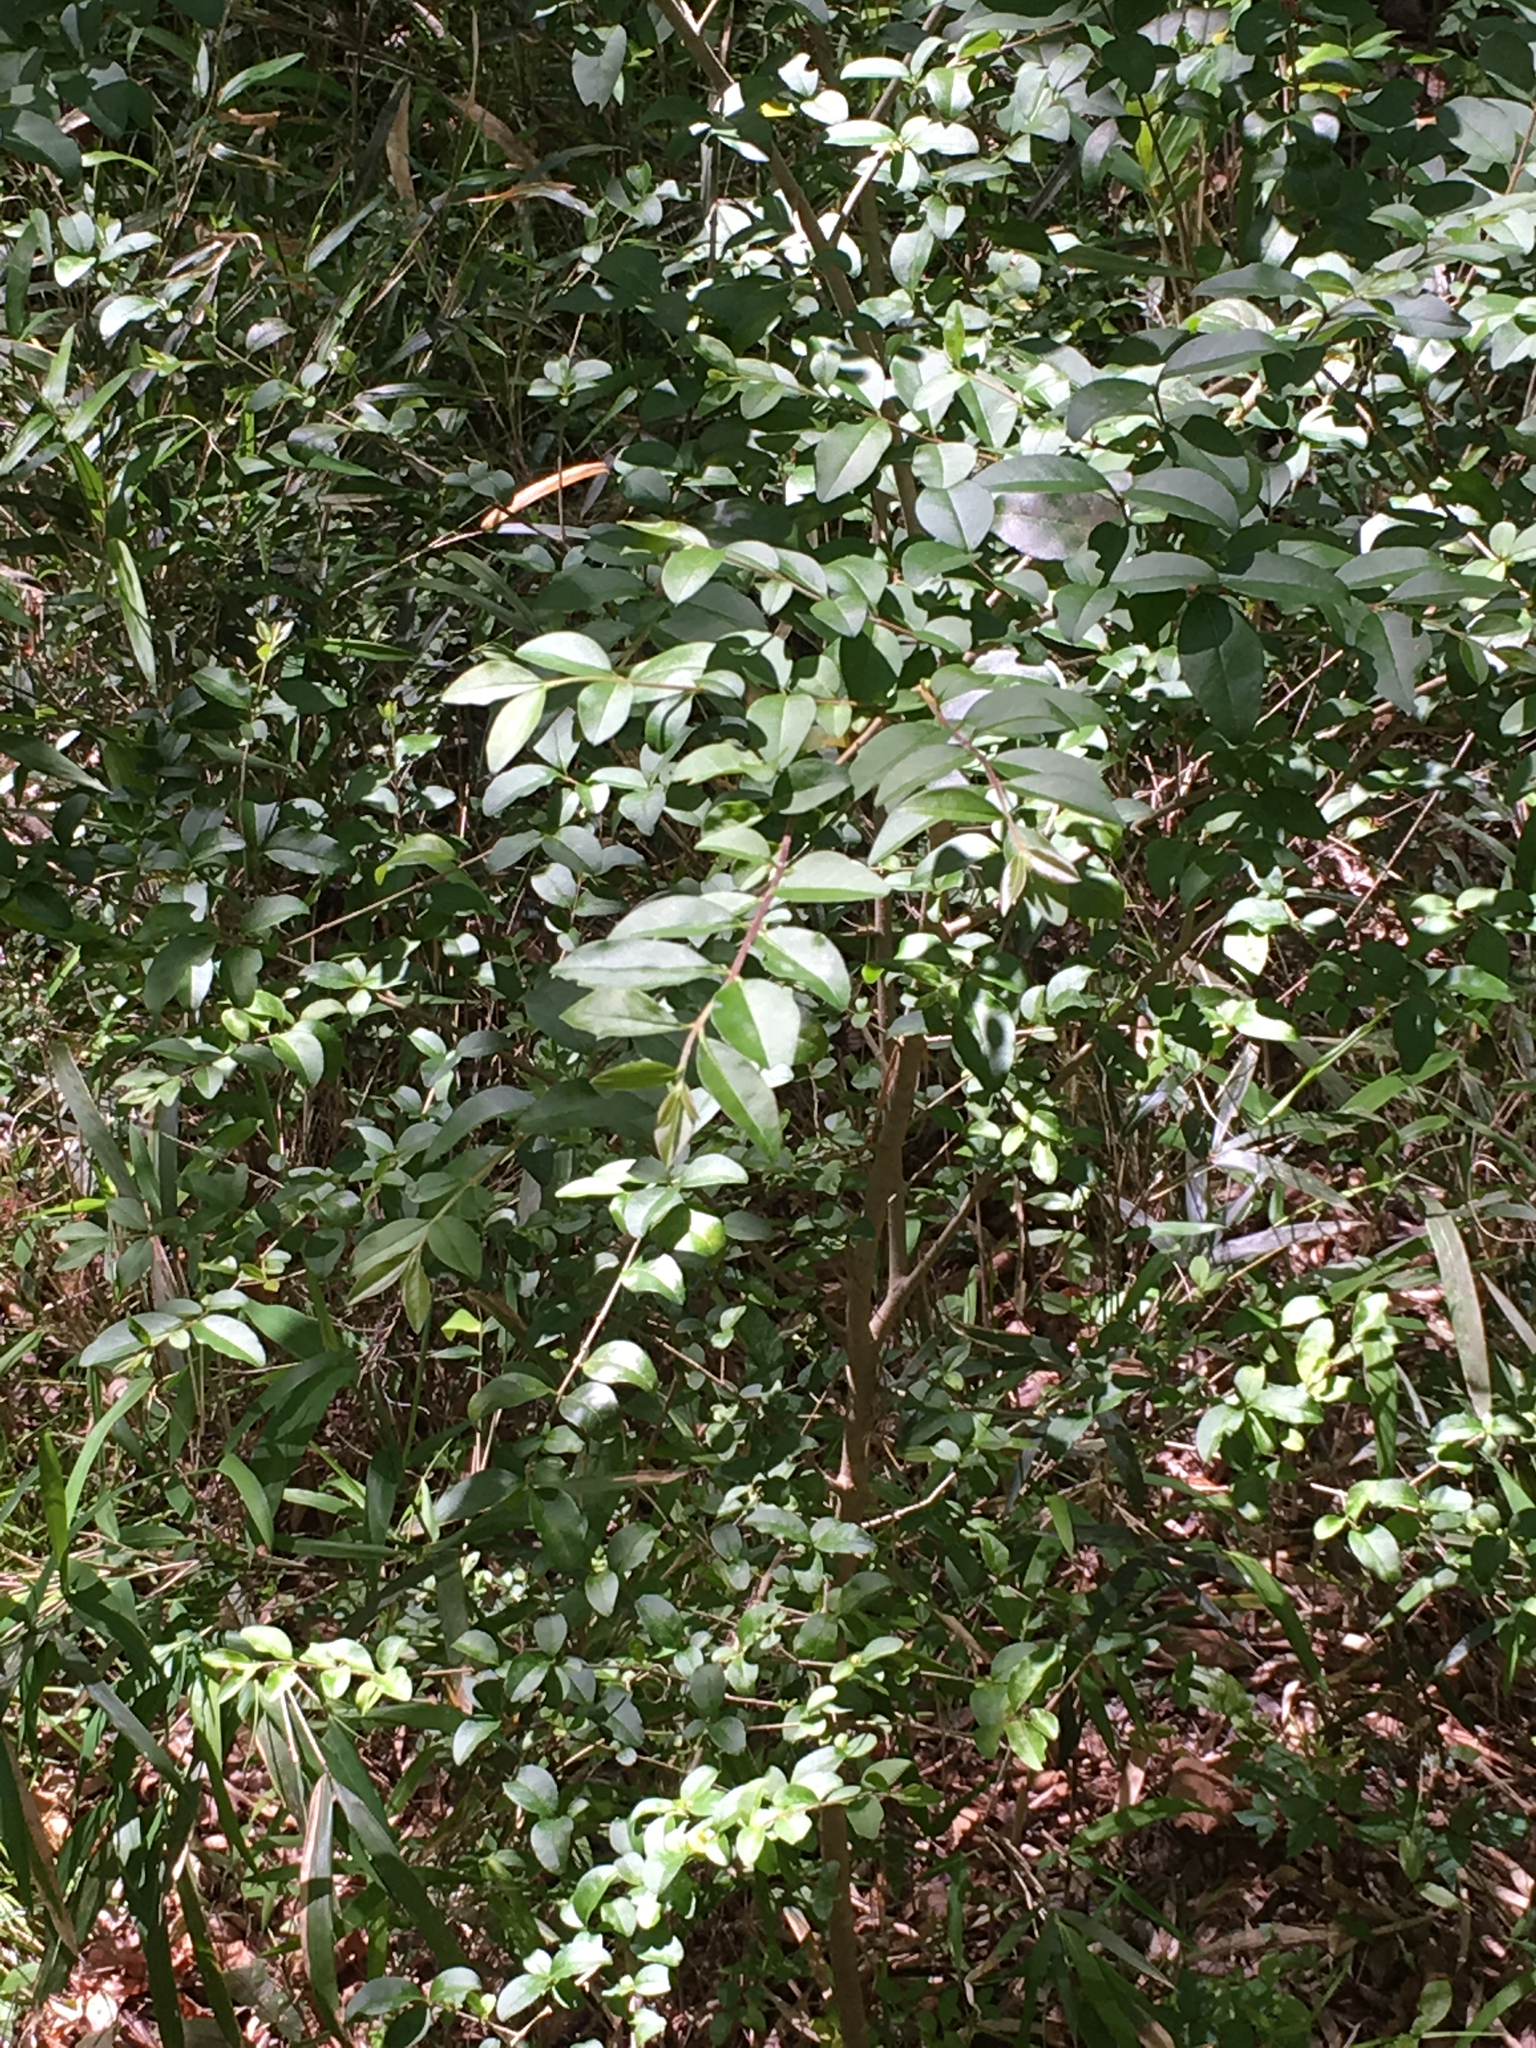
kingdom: Plantae
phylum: Tracheophyta
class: Magnoliopsida
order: Lamiales
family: Oleaceae
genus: Ligustrum
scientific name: Ligustrum sinense
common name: Chinese privet
